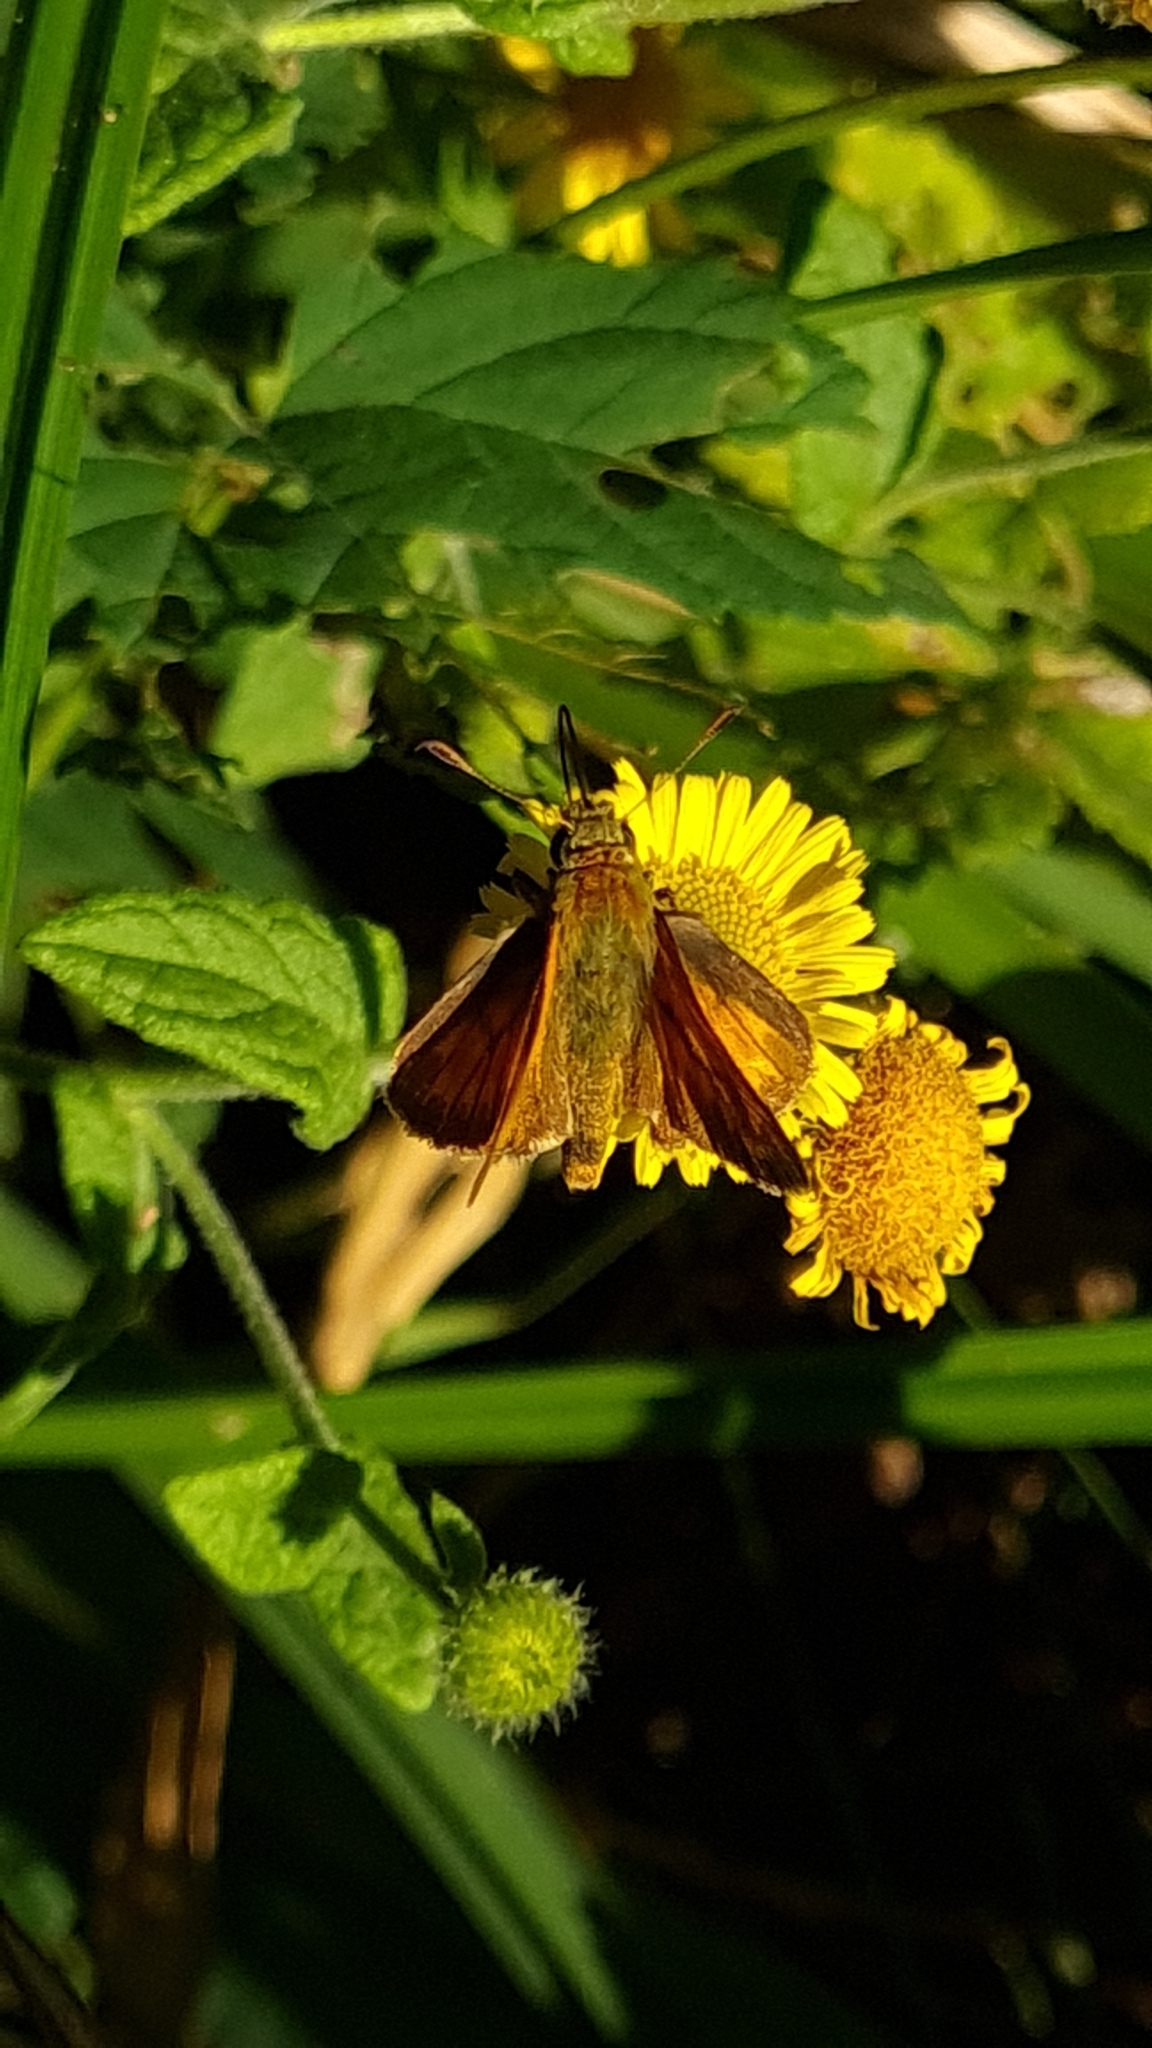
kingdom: Animalia
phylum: Arthropoda
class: Insecta
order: Lepidoptera
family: Hesperiidae
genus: Ochlodes
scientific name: Ochlodes venata
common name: Large skipper
